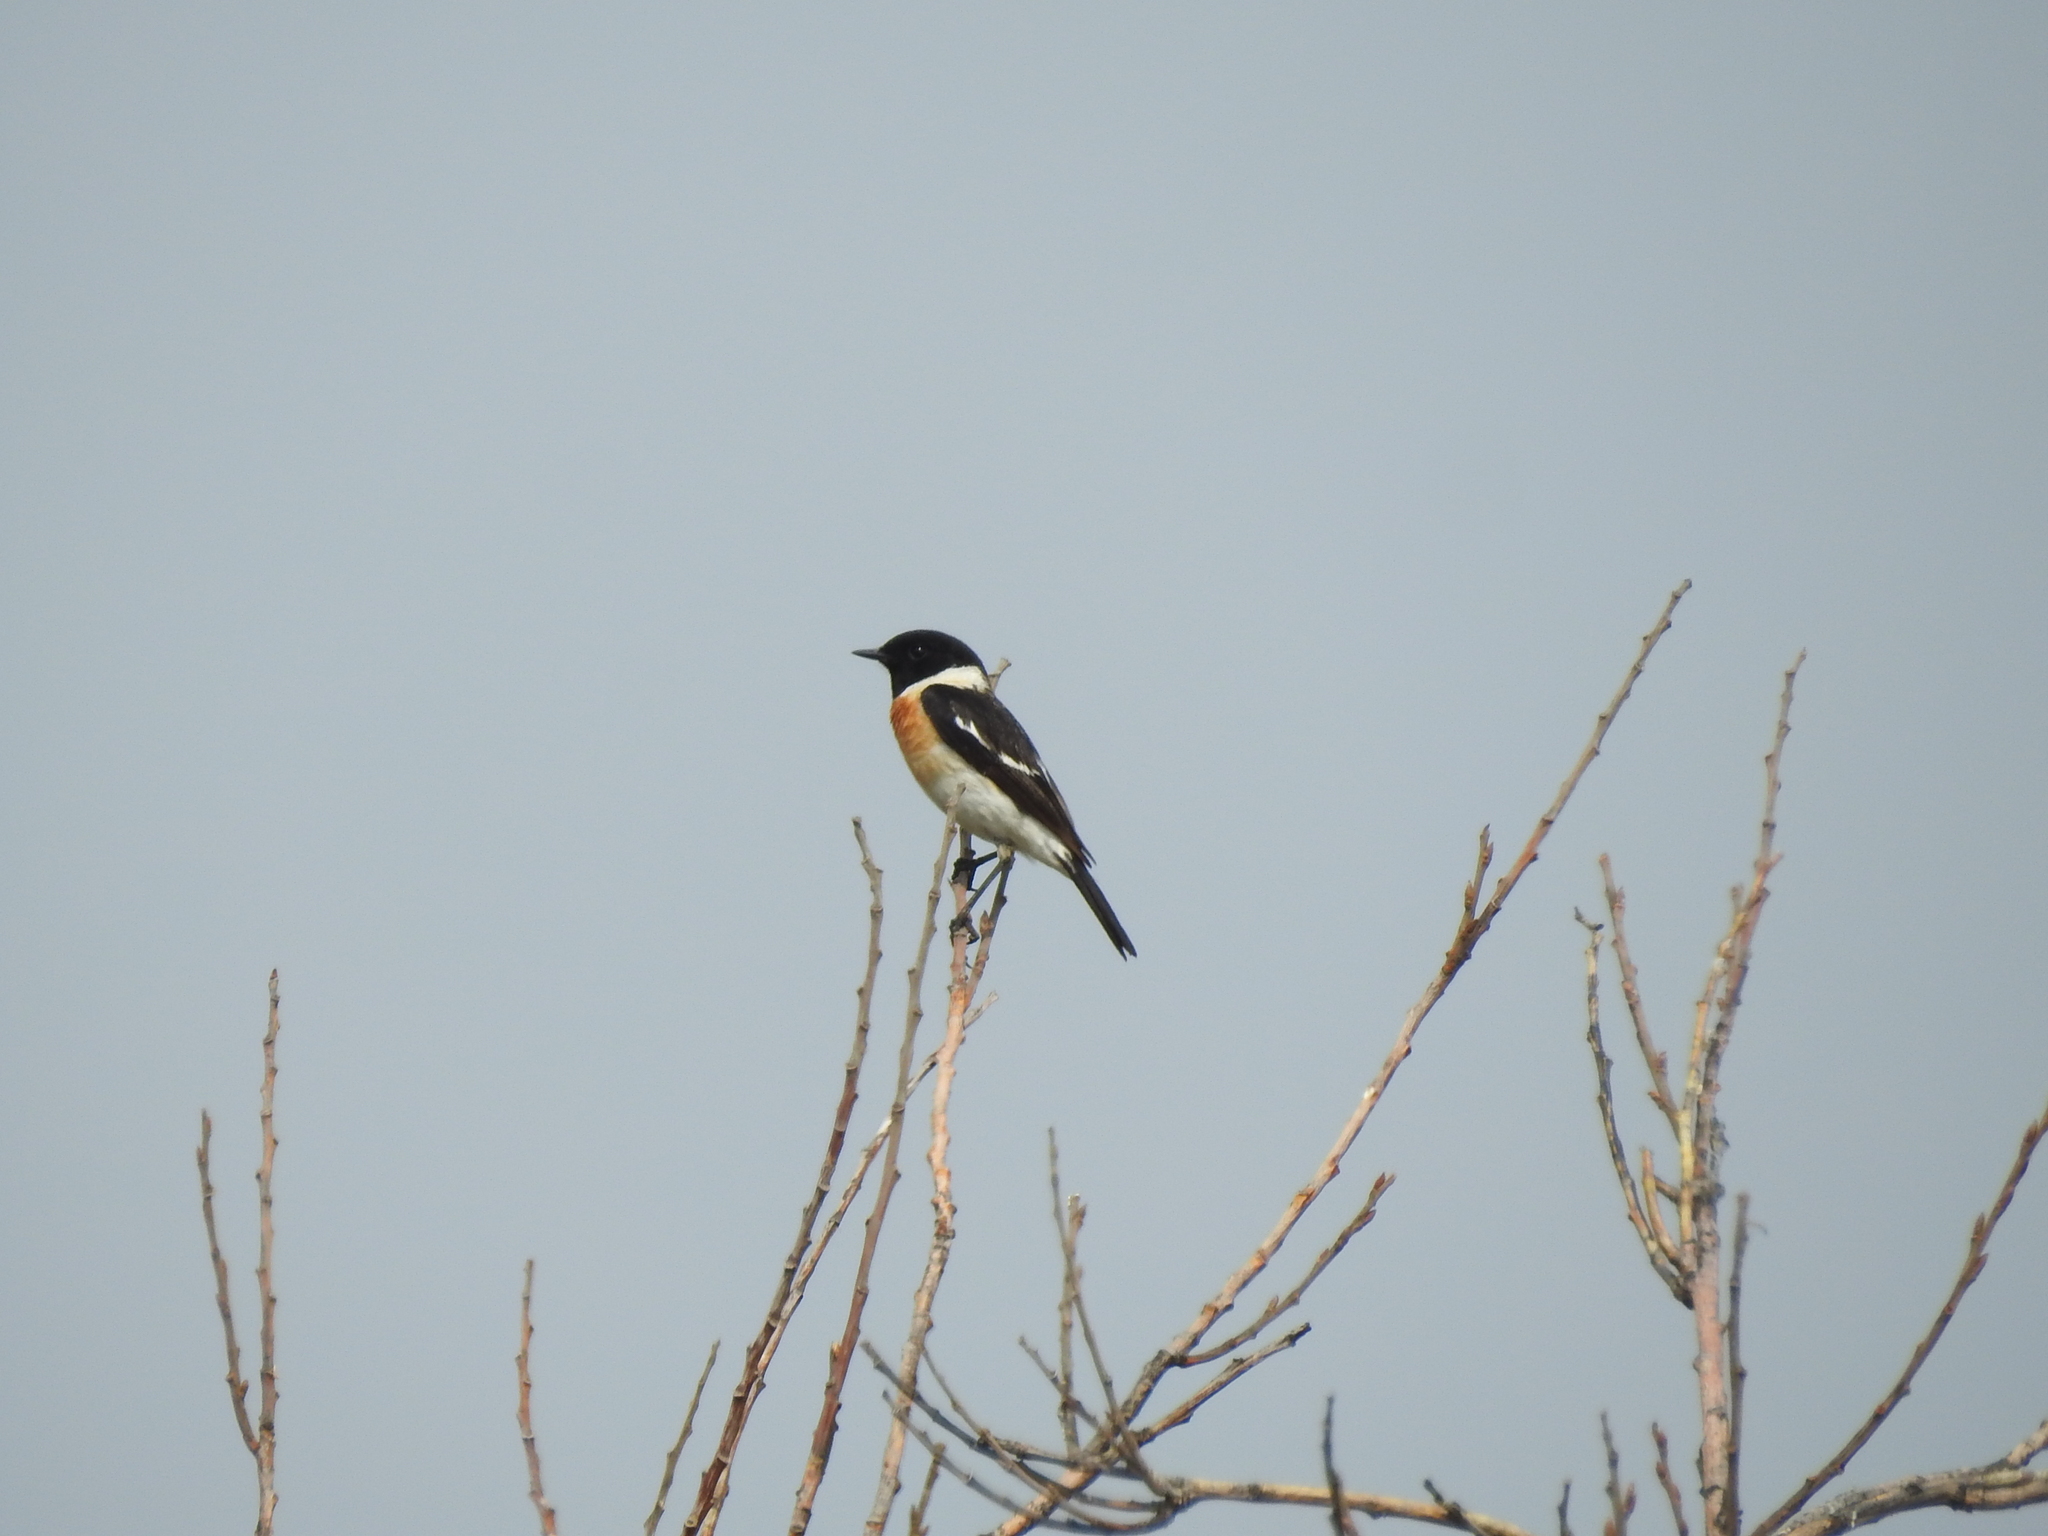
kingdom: Animalia
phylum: Chordata
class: Aves
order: Passeriformes
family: Muscicapidae
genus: Saxicola
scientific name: Saxicola maurus
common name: Siberian stonechat
